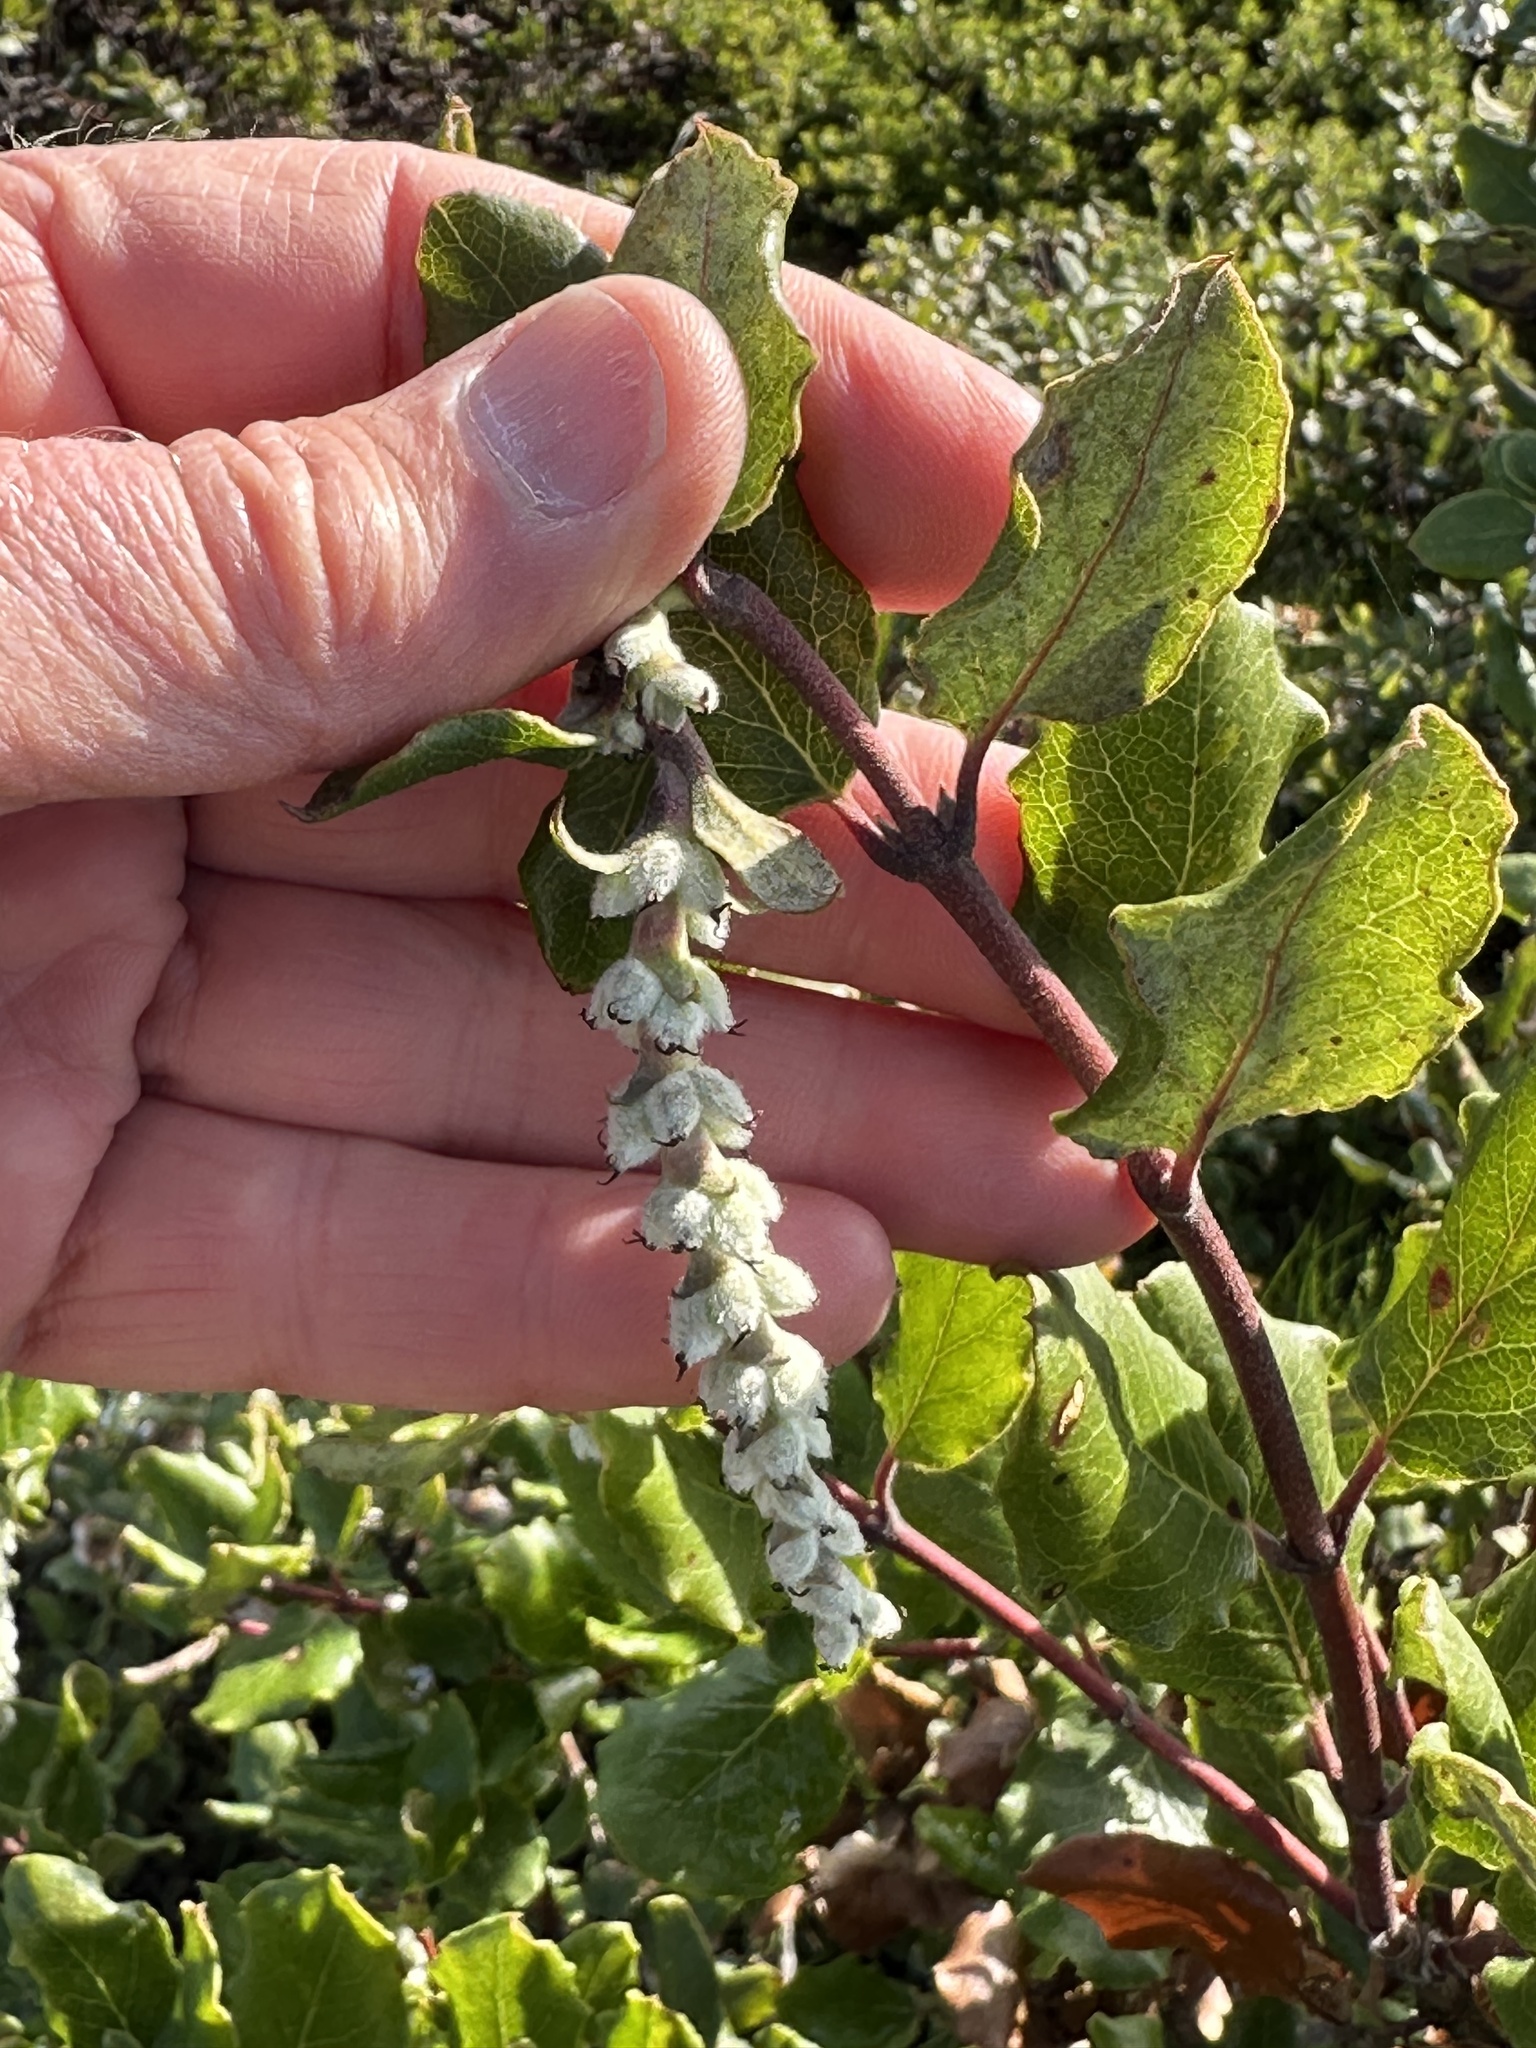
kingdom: Plantae
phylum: Tracheophyta
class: Magnoliopsida
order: Garryales
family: Garryaceae
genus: Garrya
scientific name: Garrya elliptica
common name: Silk-tassel
